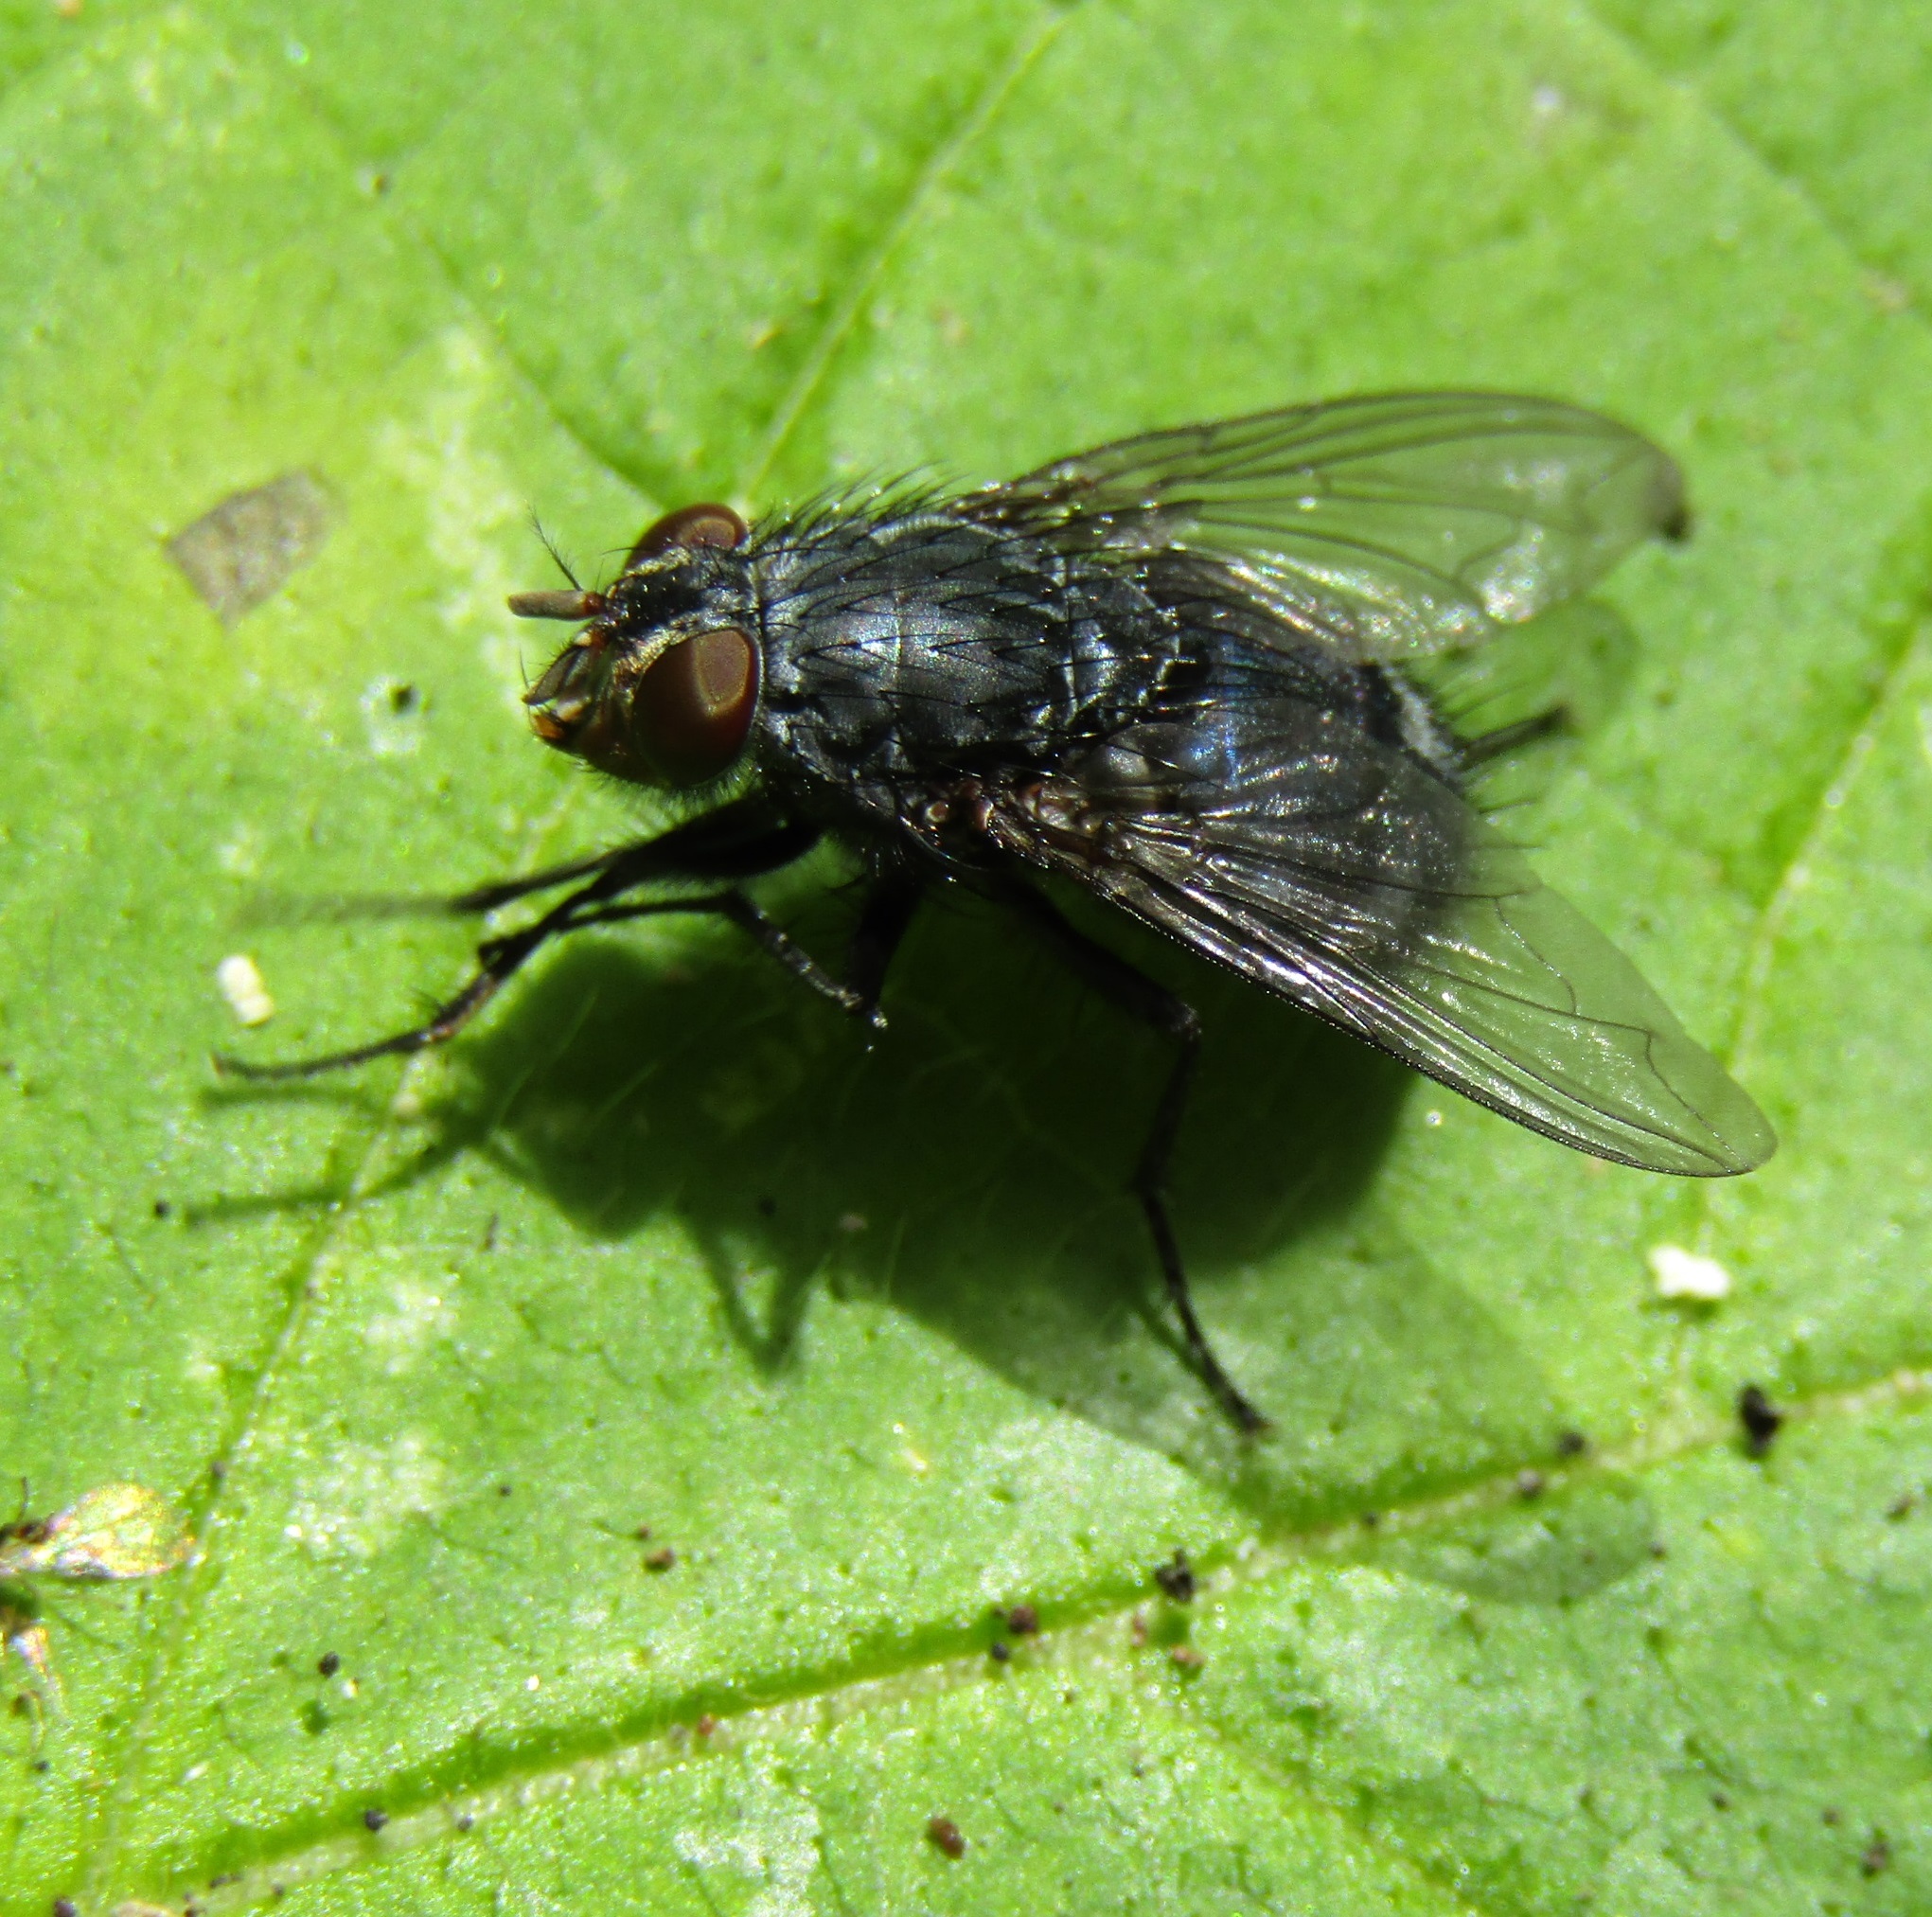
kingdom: Animalia
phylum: Arthropoda
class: Insecta
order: Diptera
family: Calliphoridae
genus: Calliphora
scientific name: Calliphora vicina
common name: Common blow flie
